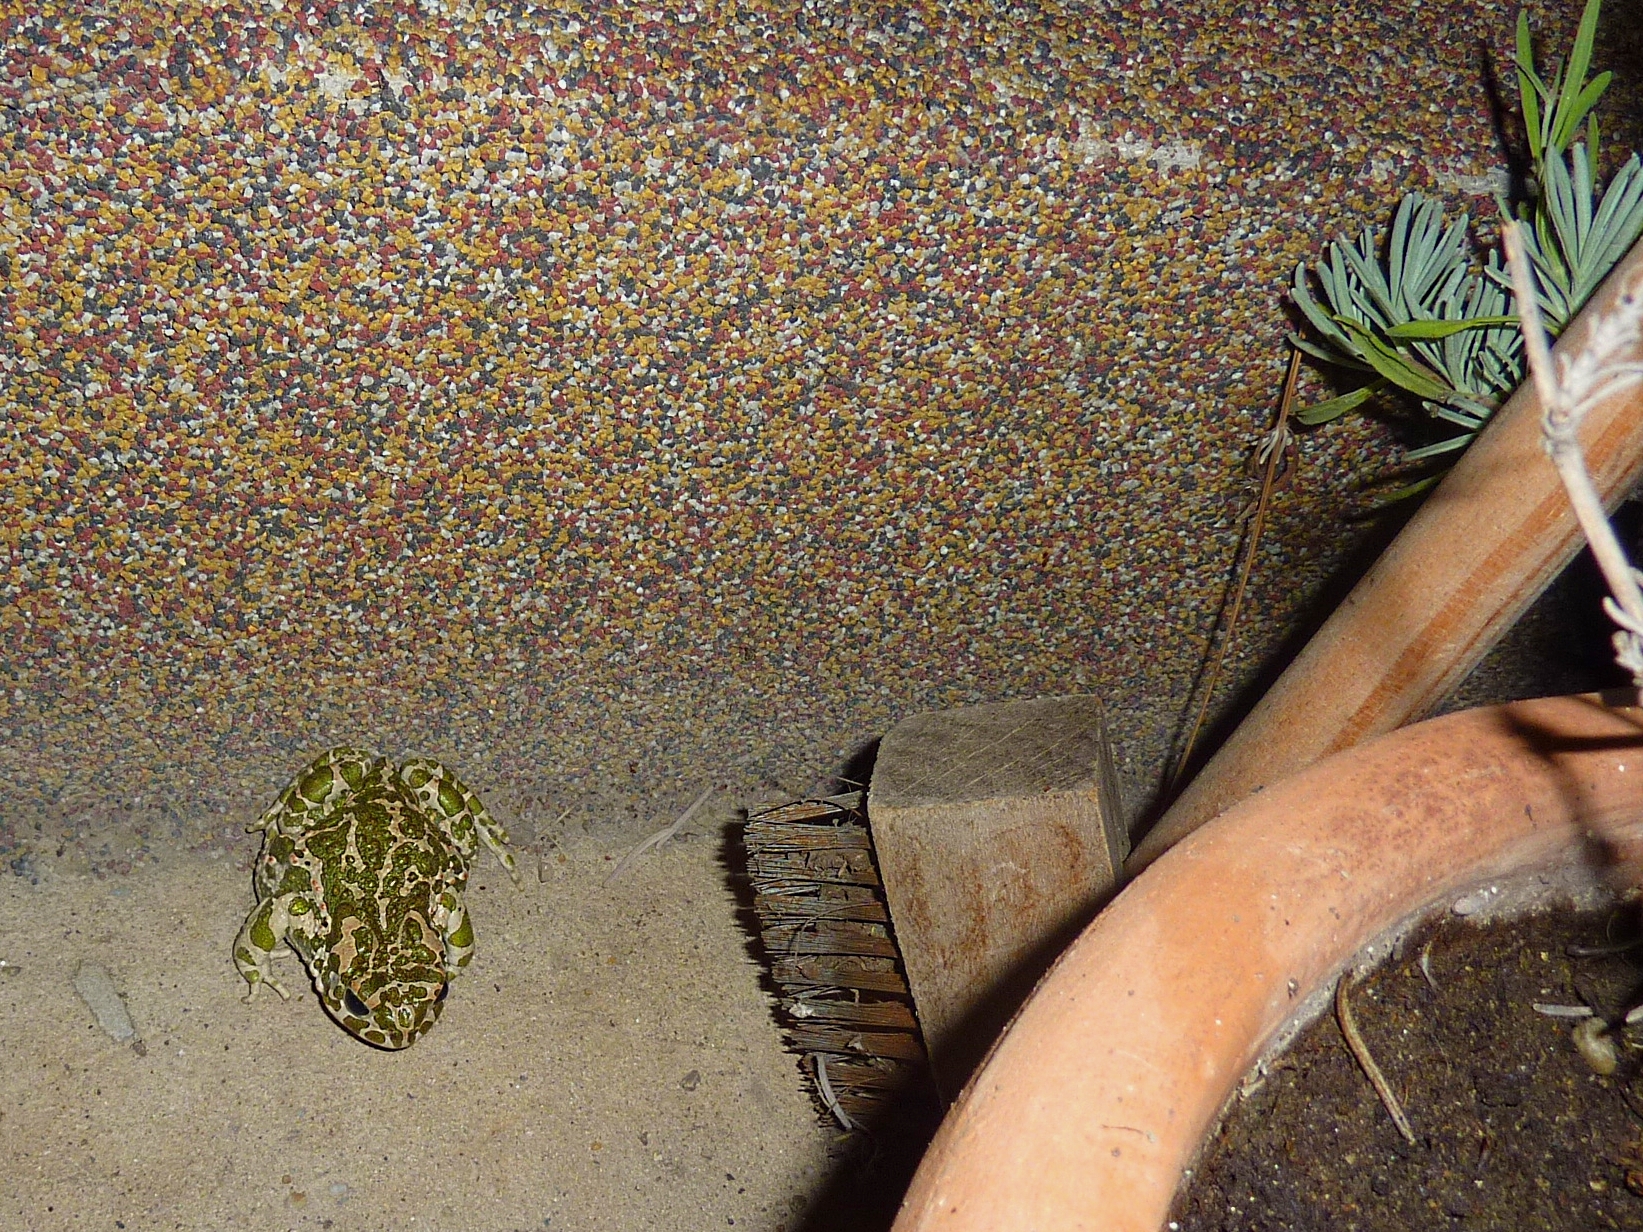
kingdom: Animalia
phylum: Chordata
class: Amphibia
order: Anura
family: Bufonidae
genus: Bufotes
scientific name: Bufotes viridis
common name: European green toad
